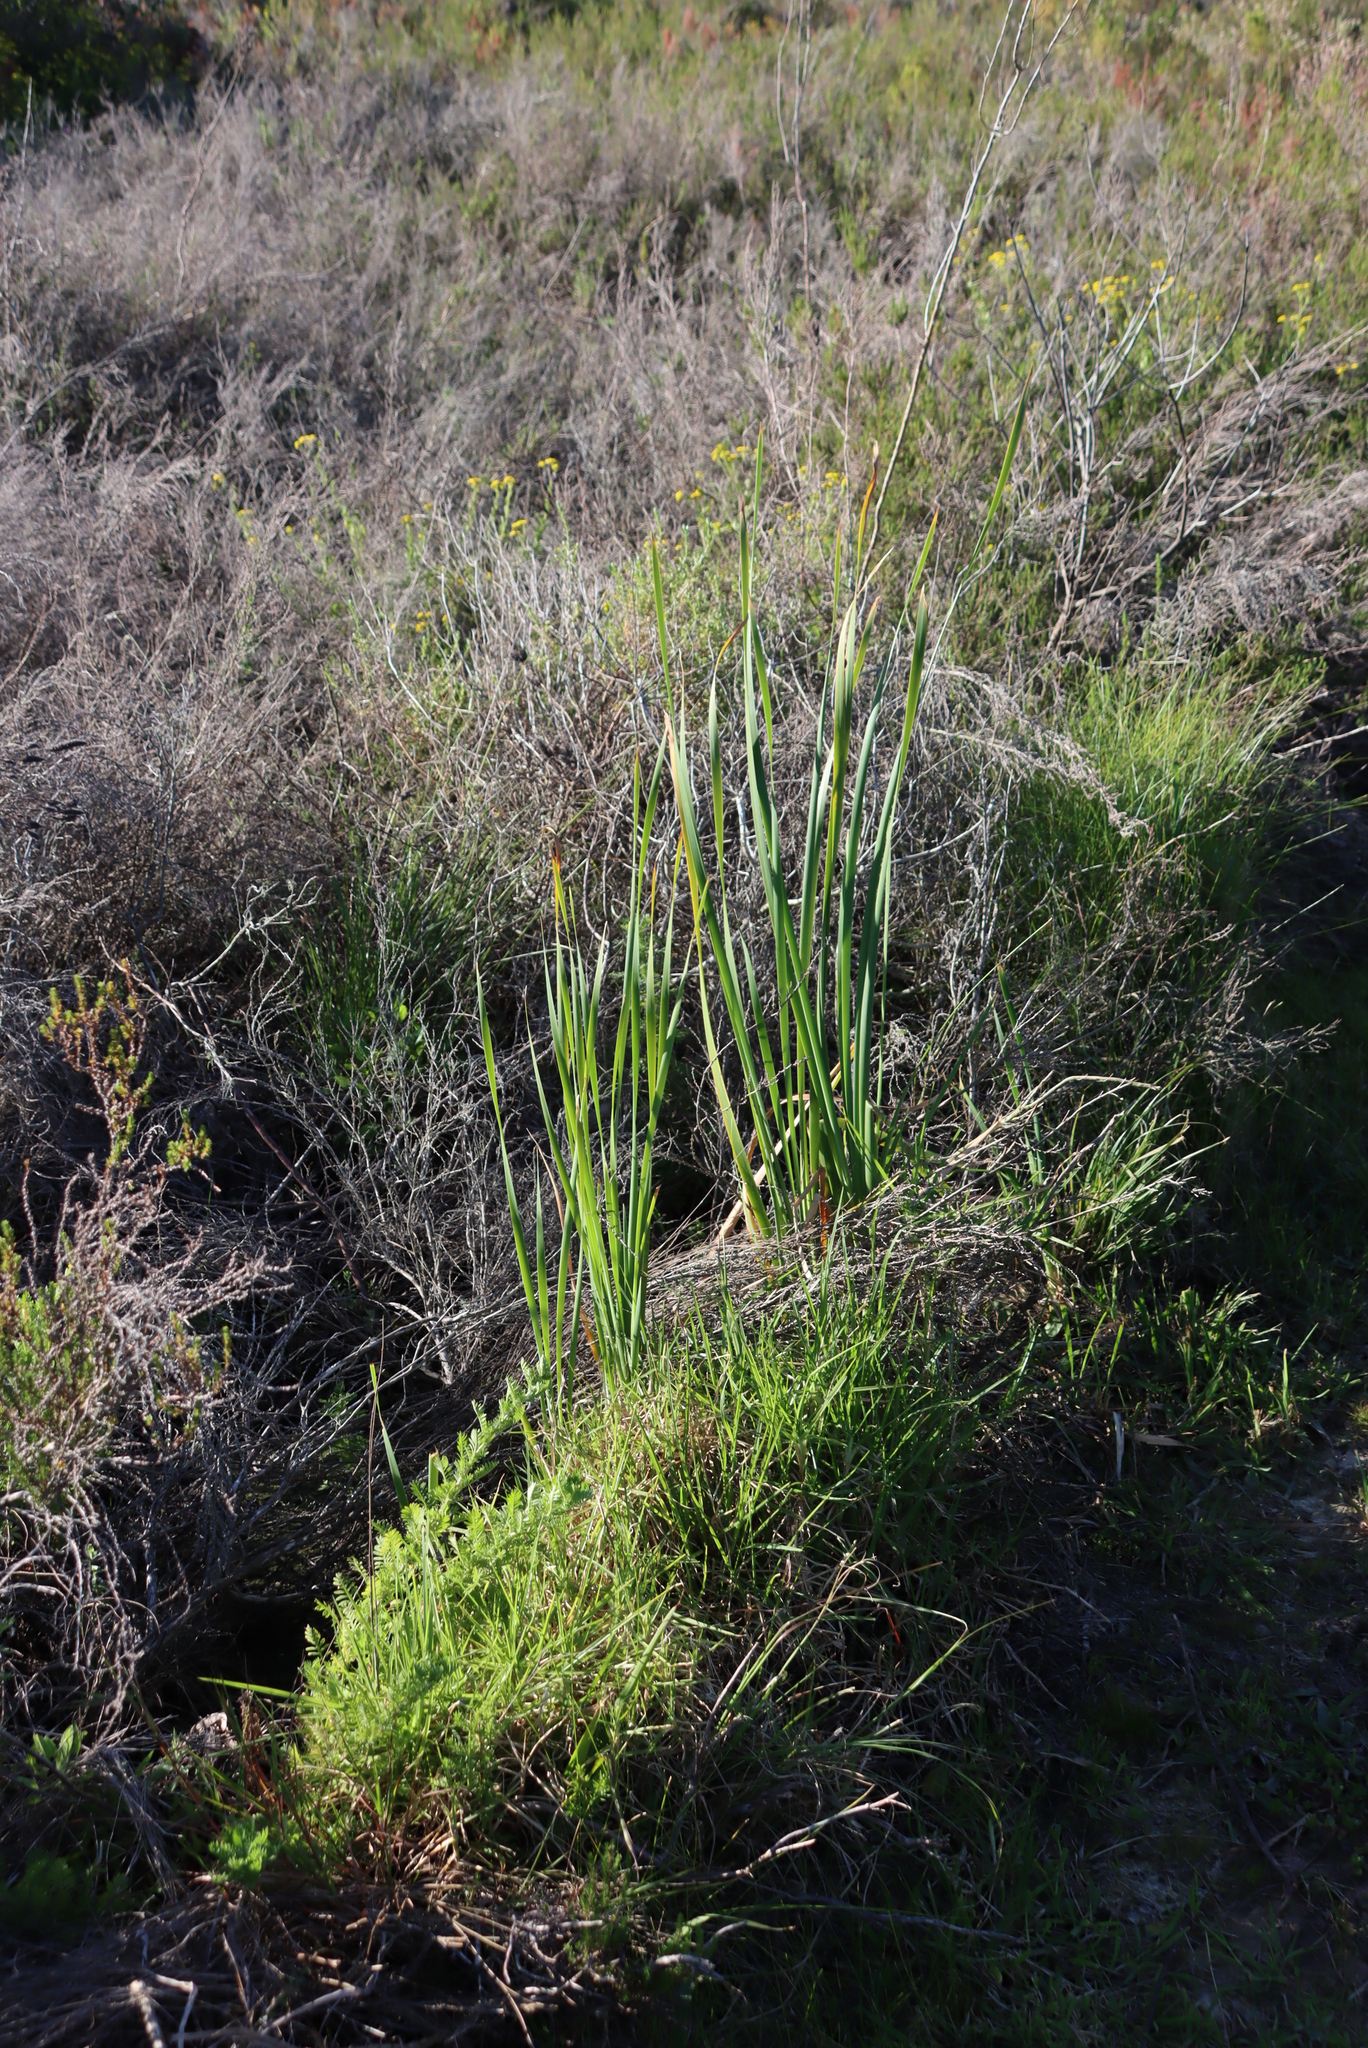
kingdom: Plantae
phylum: Tracheophyta
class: Liliopsida
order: Poales
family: Typhaceae
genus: Typha
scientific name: Typha capensis
